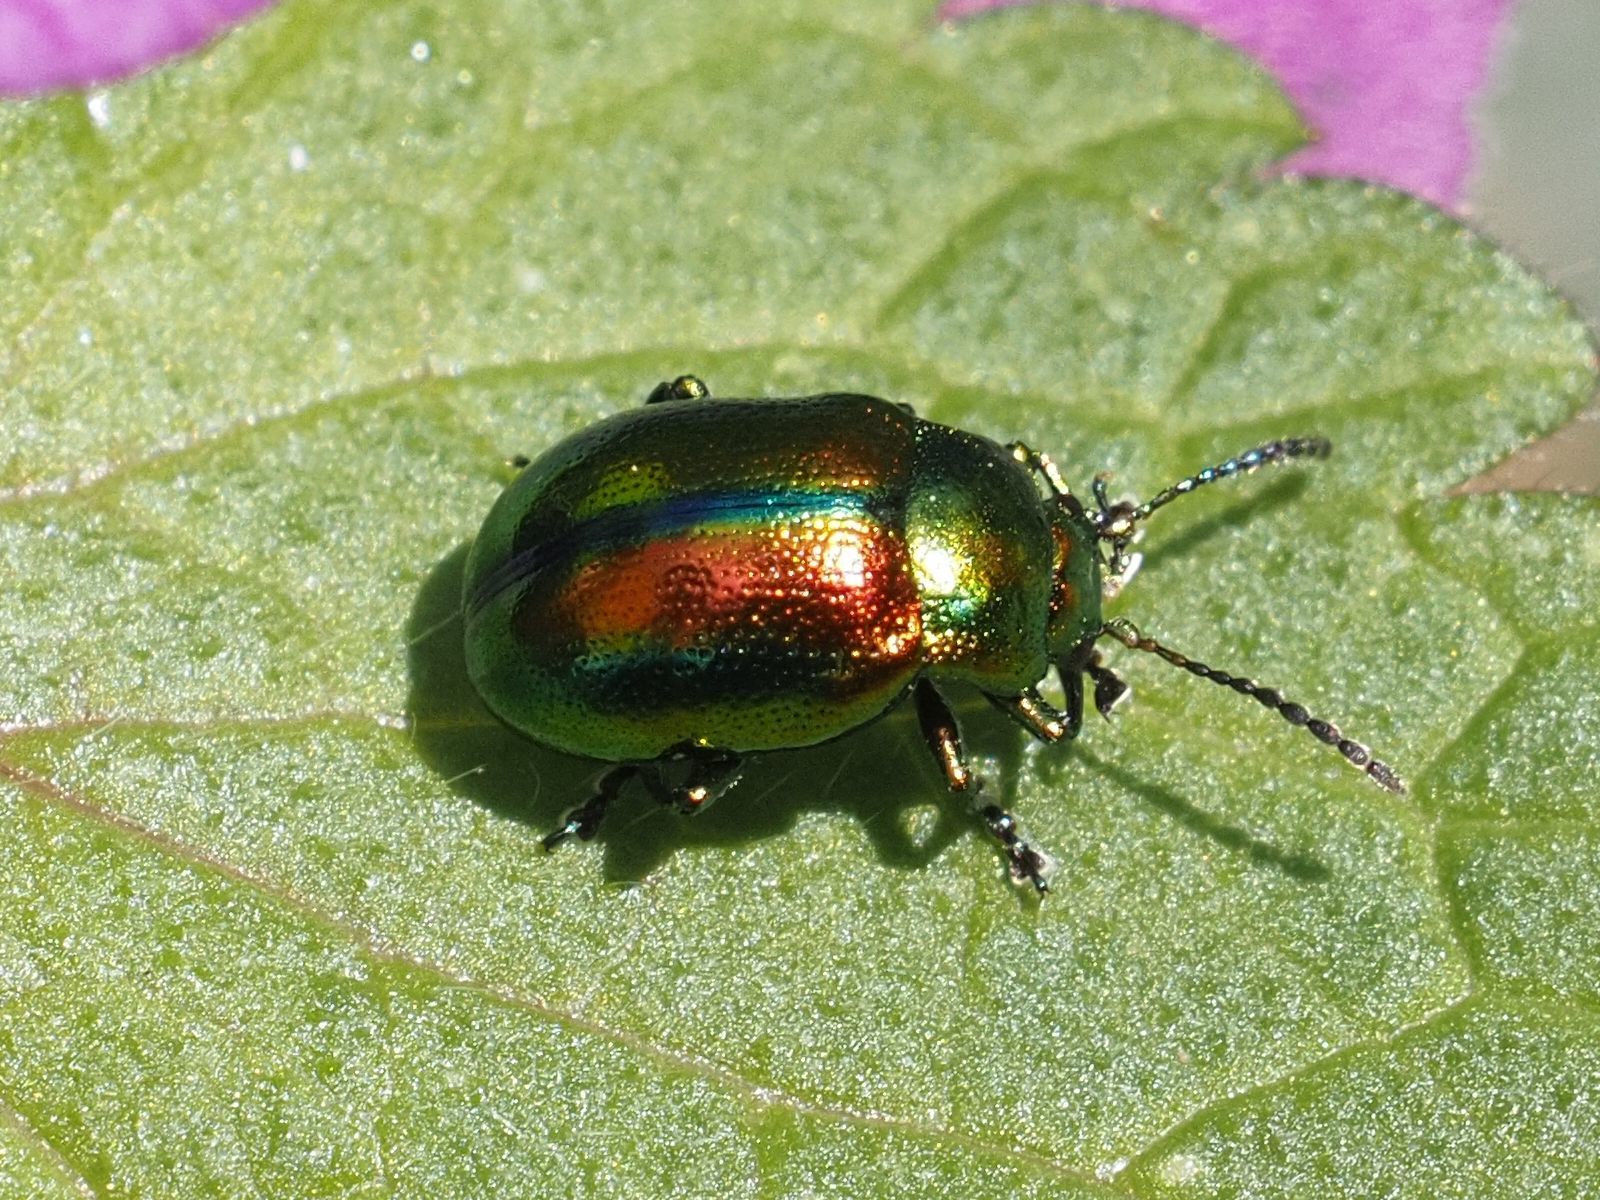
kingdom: Animalia
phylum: Arthropoda
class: Insecta
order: Coleoptera
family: Chrysomelidae
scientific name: Chrysomelidae
